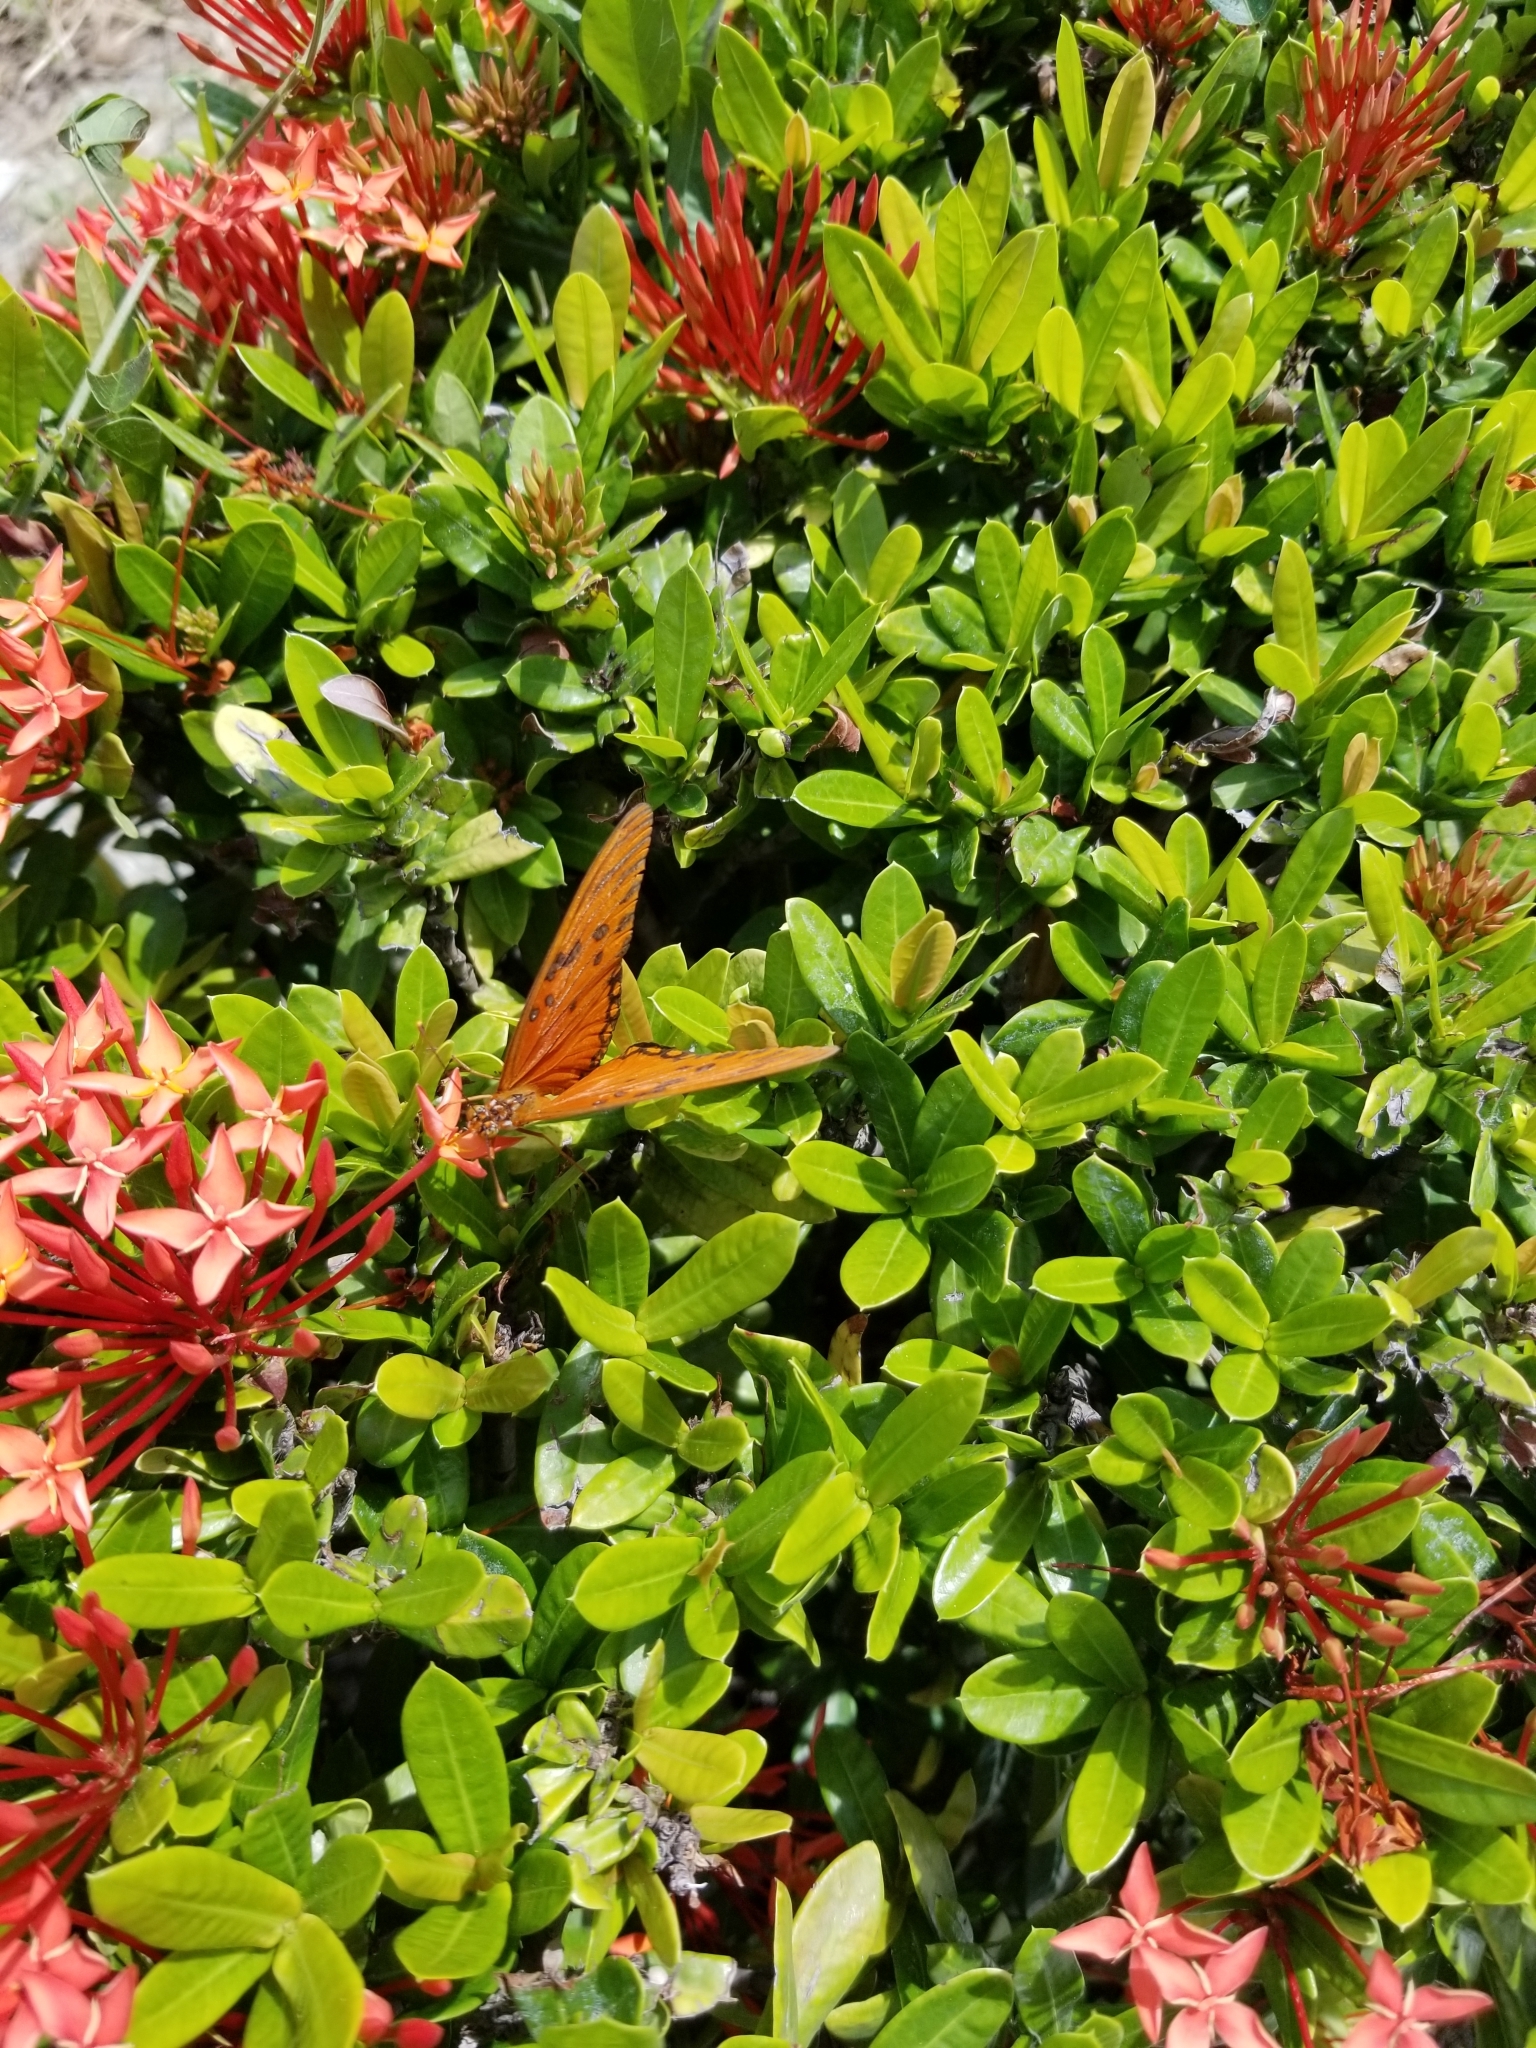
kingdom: Animalia
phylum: Arthropoda
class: Insecta
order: Lepidoptera
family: Nymphalidae
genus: Dione
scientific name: Dione vanillae
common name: Gulf fritillary
